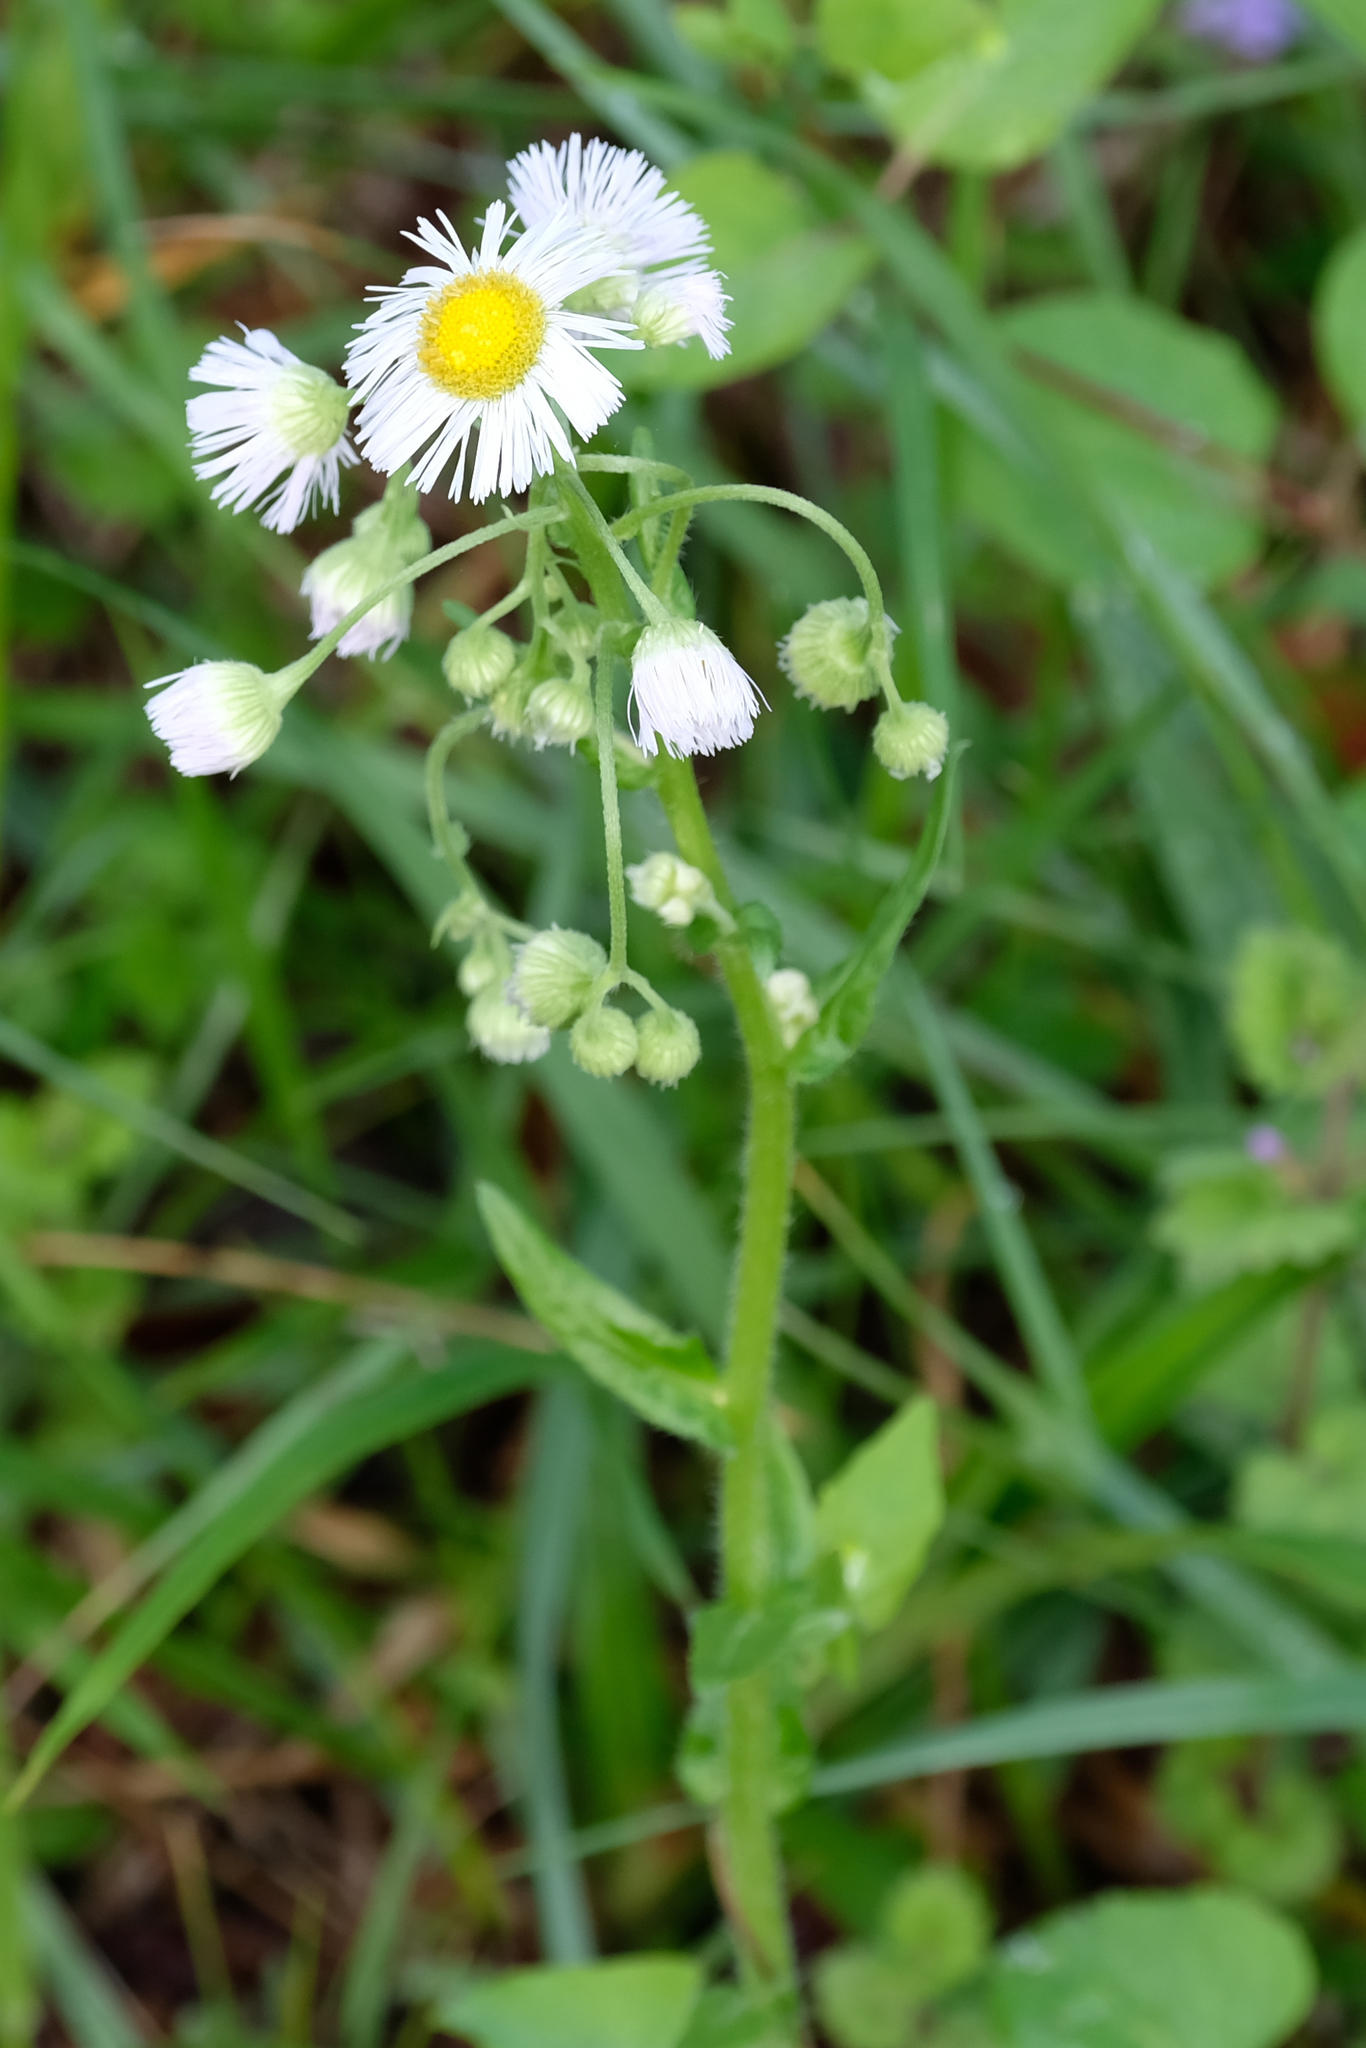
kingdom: Plantae
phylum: Tracheophyta
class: Magnoliopsida
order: Asterales
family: Asteraceae
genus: Erigeron
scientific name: Erigeron philadelphicus
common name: Robin's-plantain
